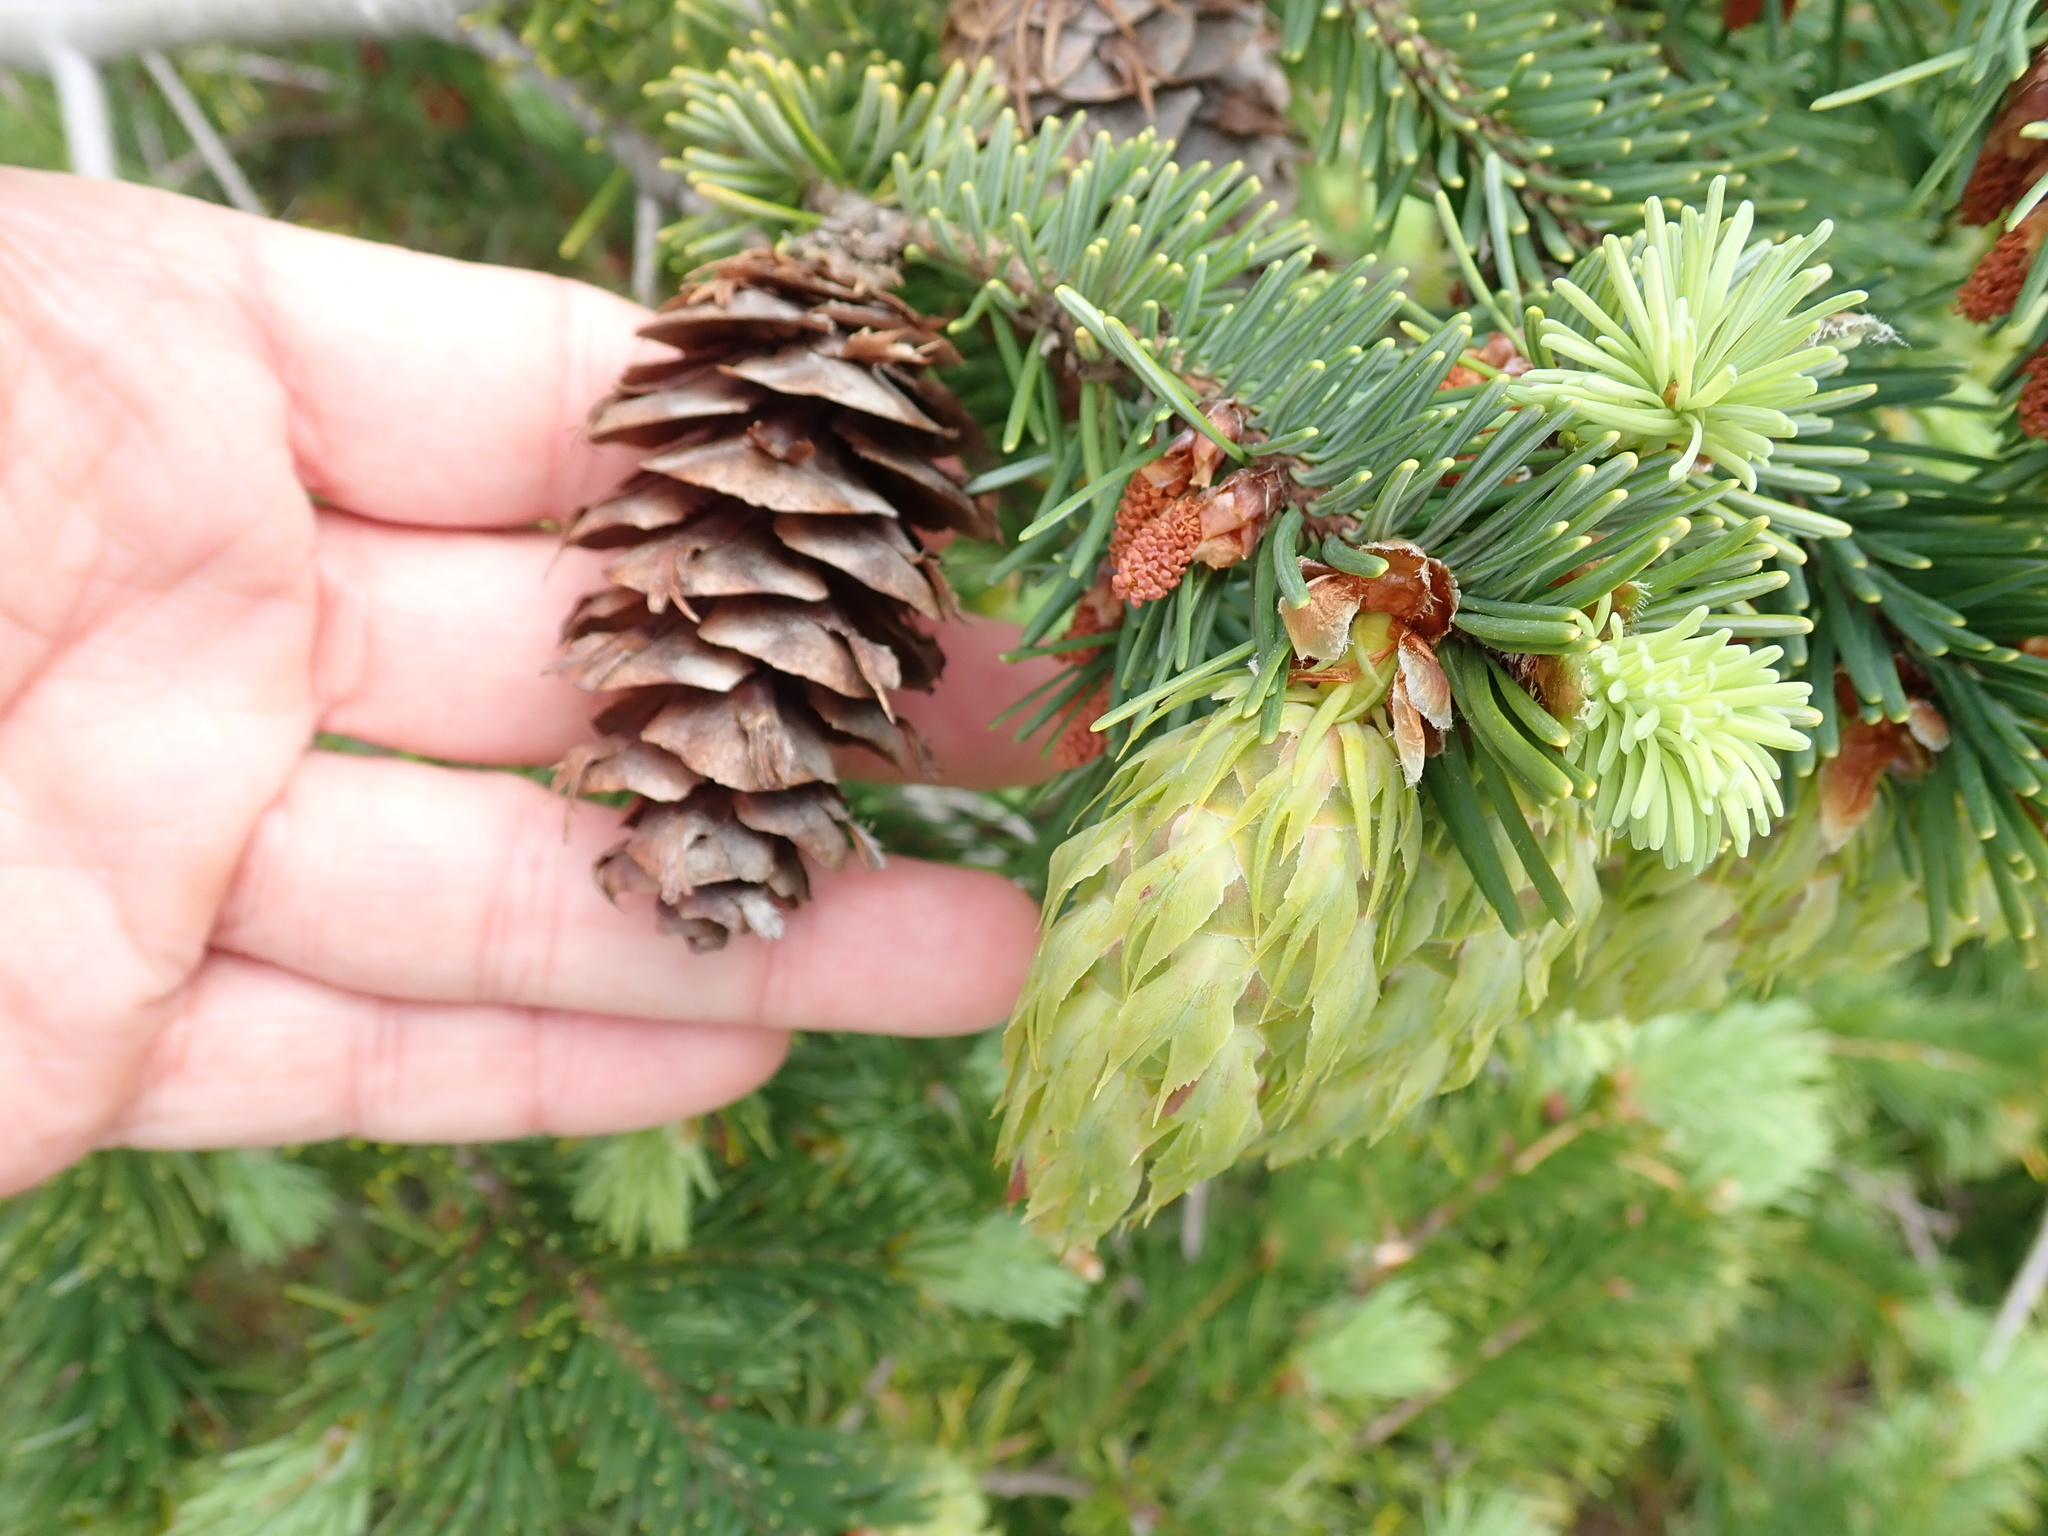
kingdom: Plantae
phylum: Tracheophyta
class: Pinopsida
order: Pinales
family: Pinaceae
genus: Pseudotsuga
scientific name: Pseudotsuga menziesii
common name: Douglas fir
